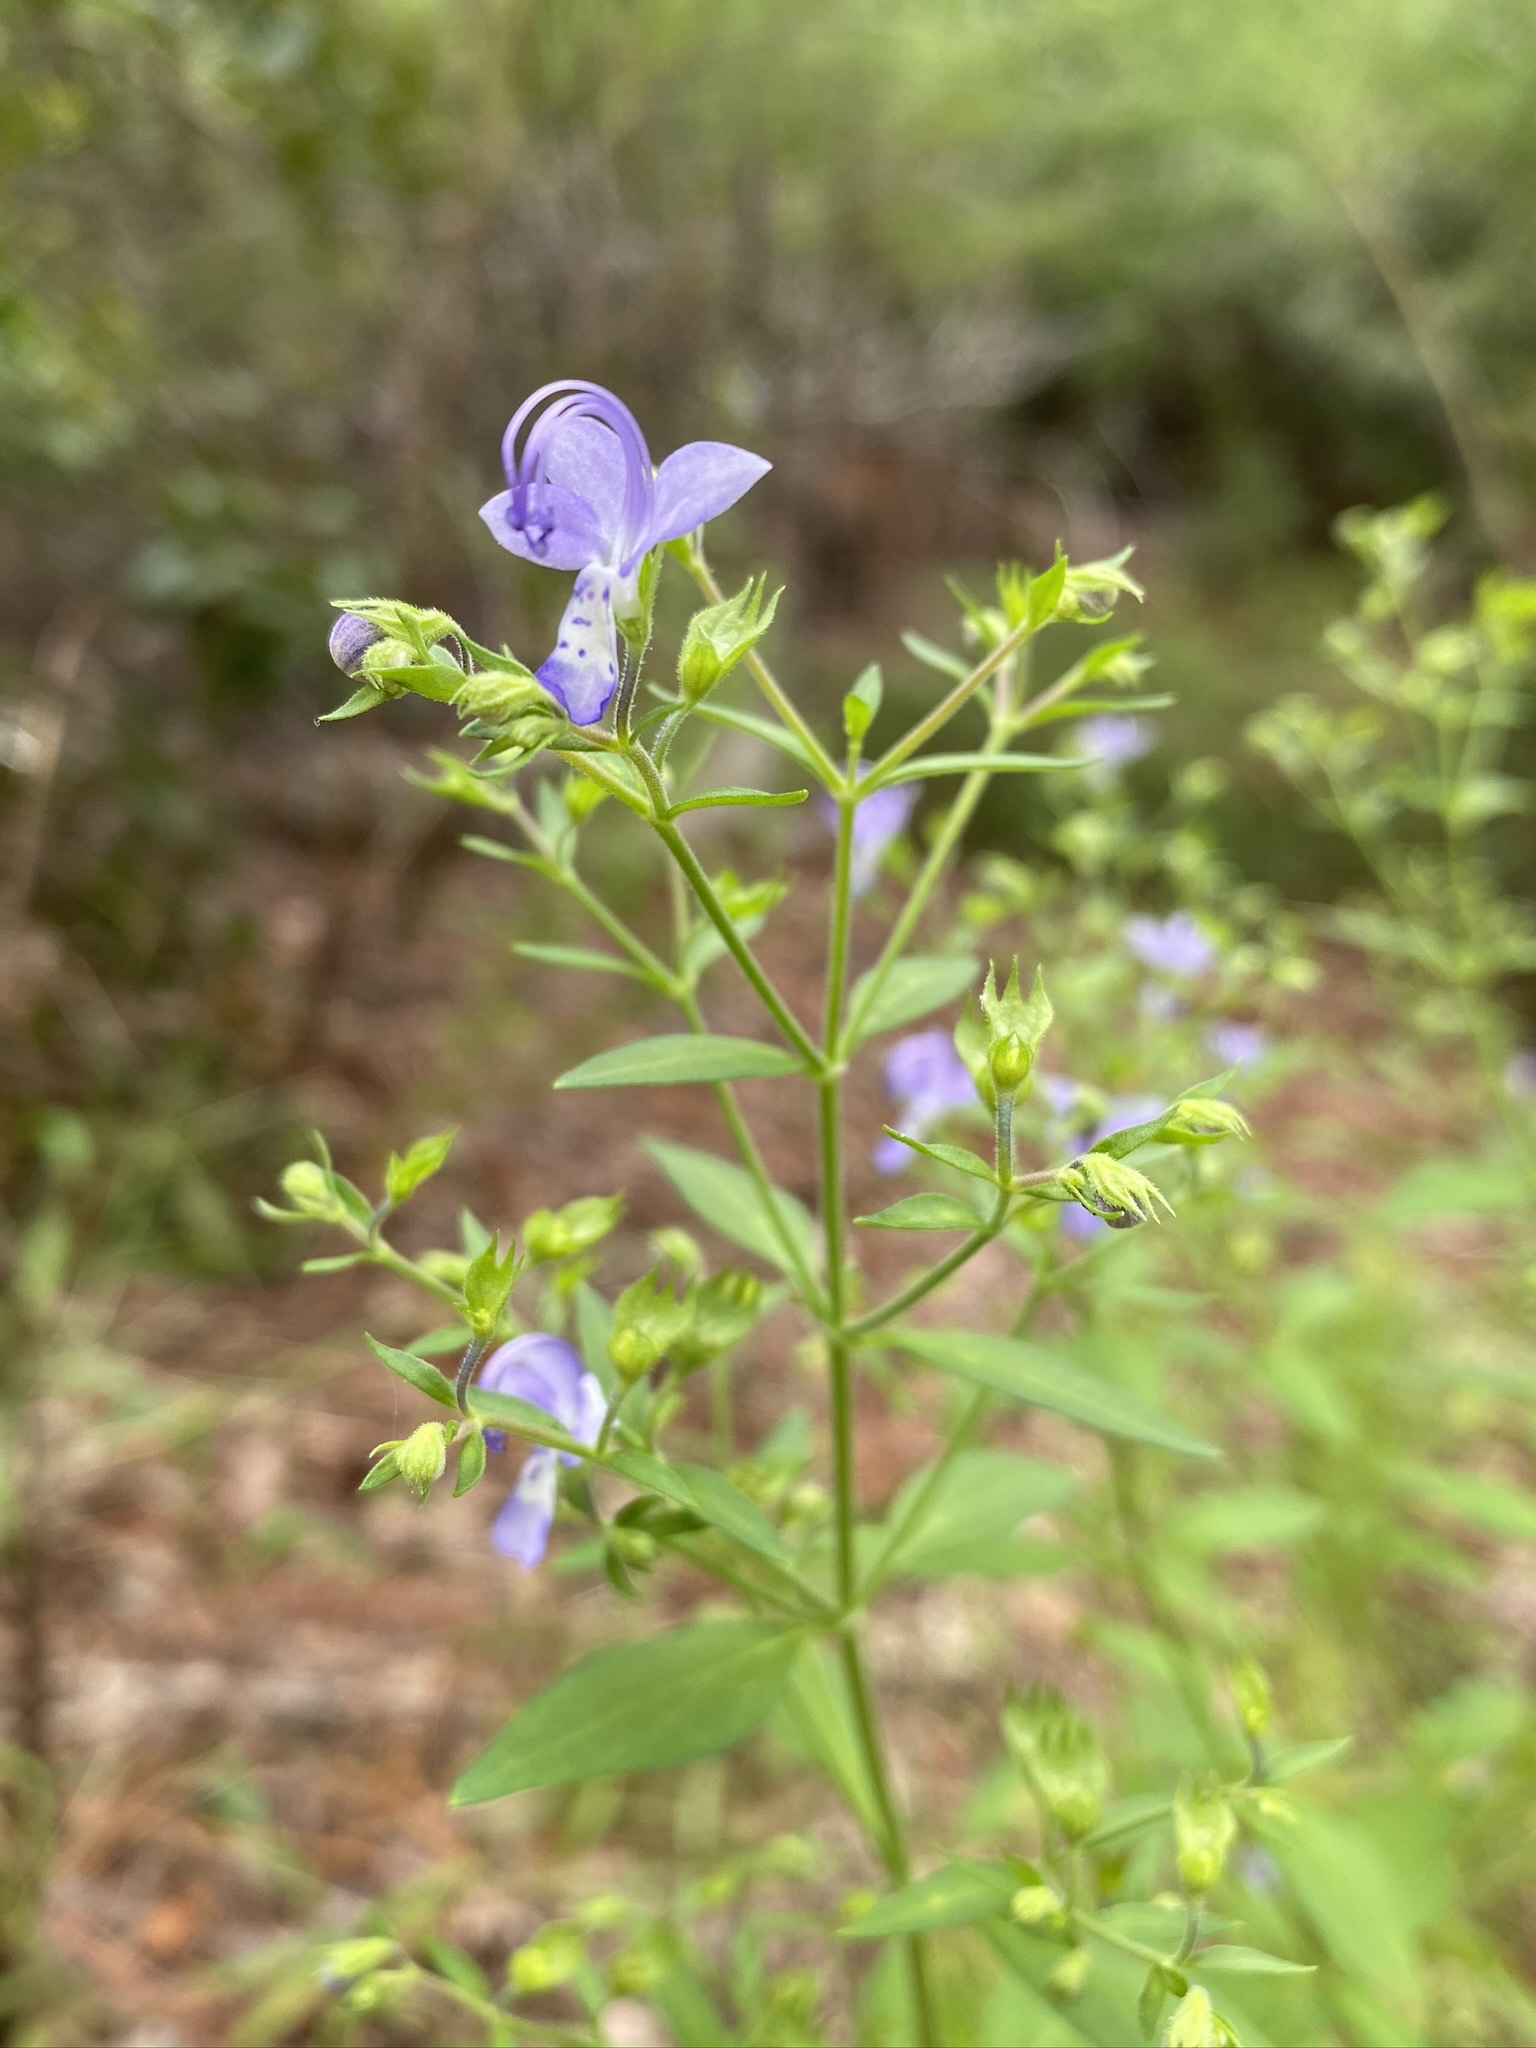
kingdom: Plantae
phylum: Tracheophyta
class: Magnoliopsida
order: Lamiales
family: Lamiaceae
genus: Trichostema
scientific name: Trichostema dichotomum
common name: Bastard pennyroyal
